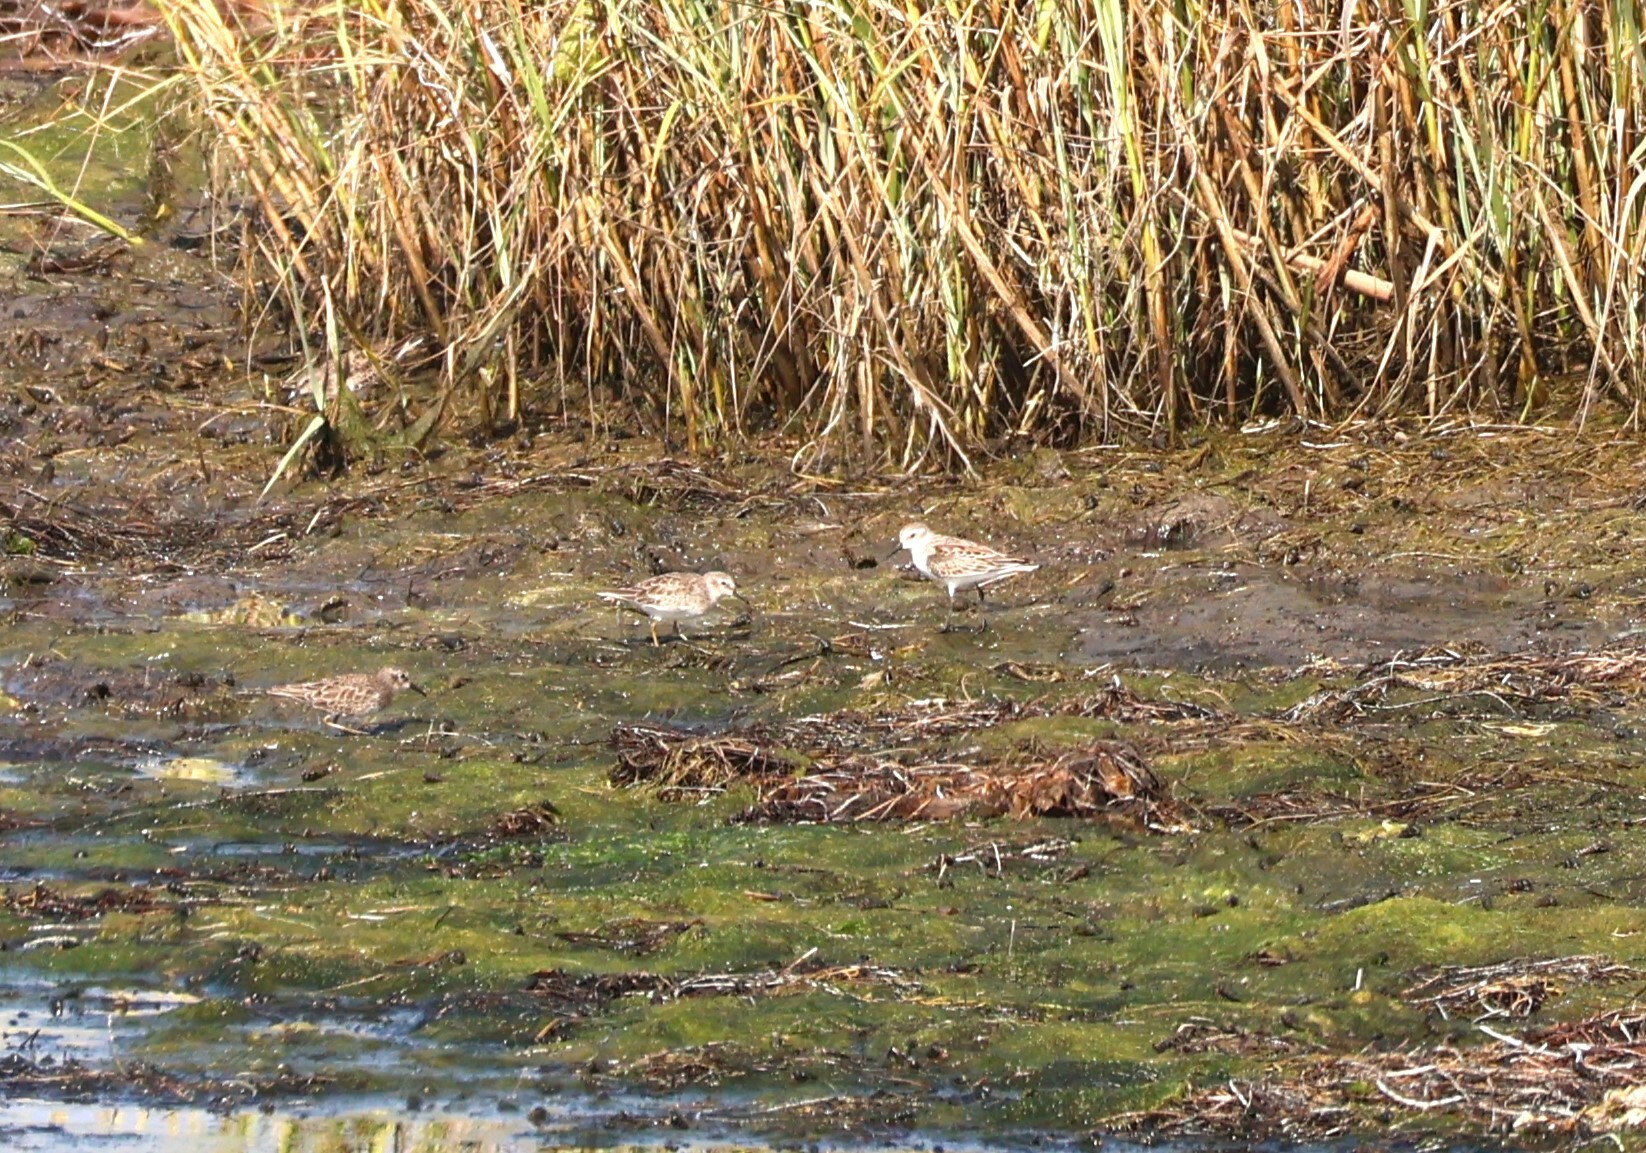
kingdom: Animalia
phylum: Chordata
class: Aves
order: Charadriiformes
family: Scolopacidae
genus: Calidris
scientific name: Calidris minutilla
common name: Least sandpiper
